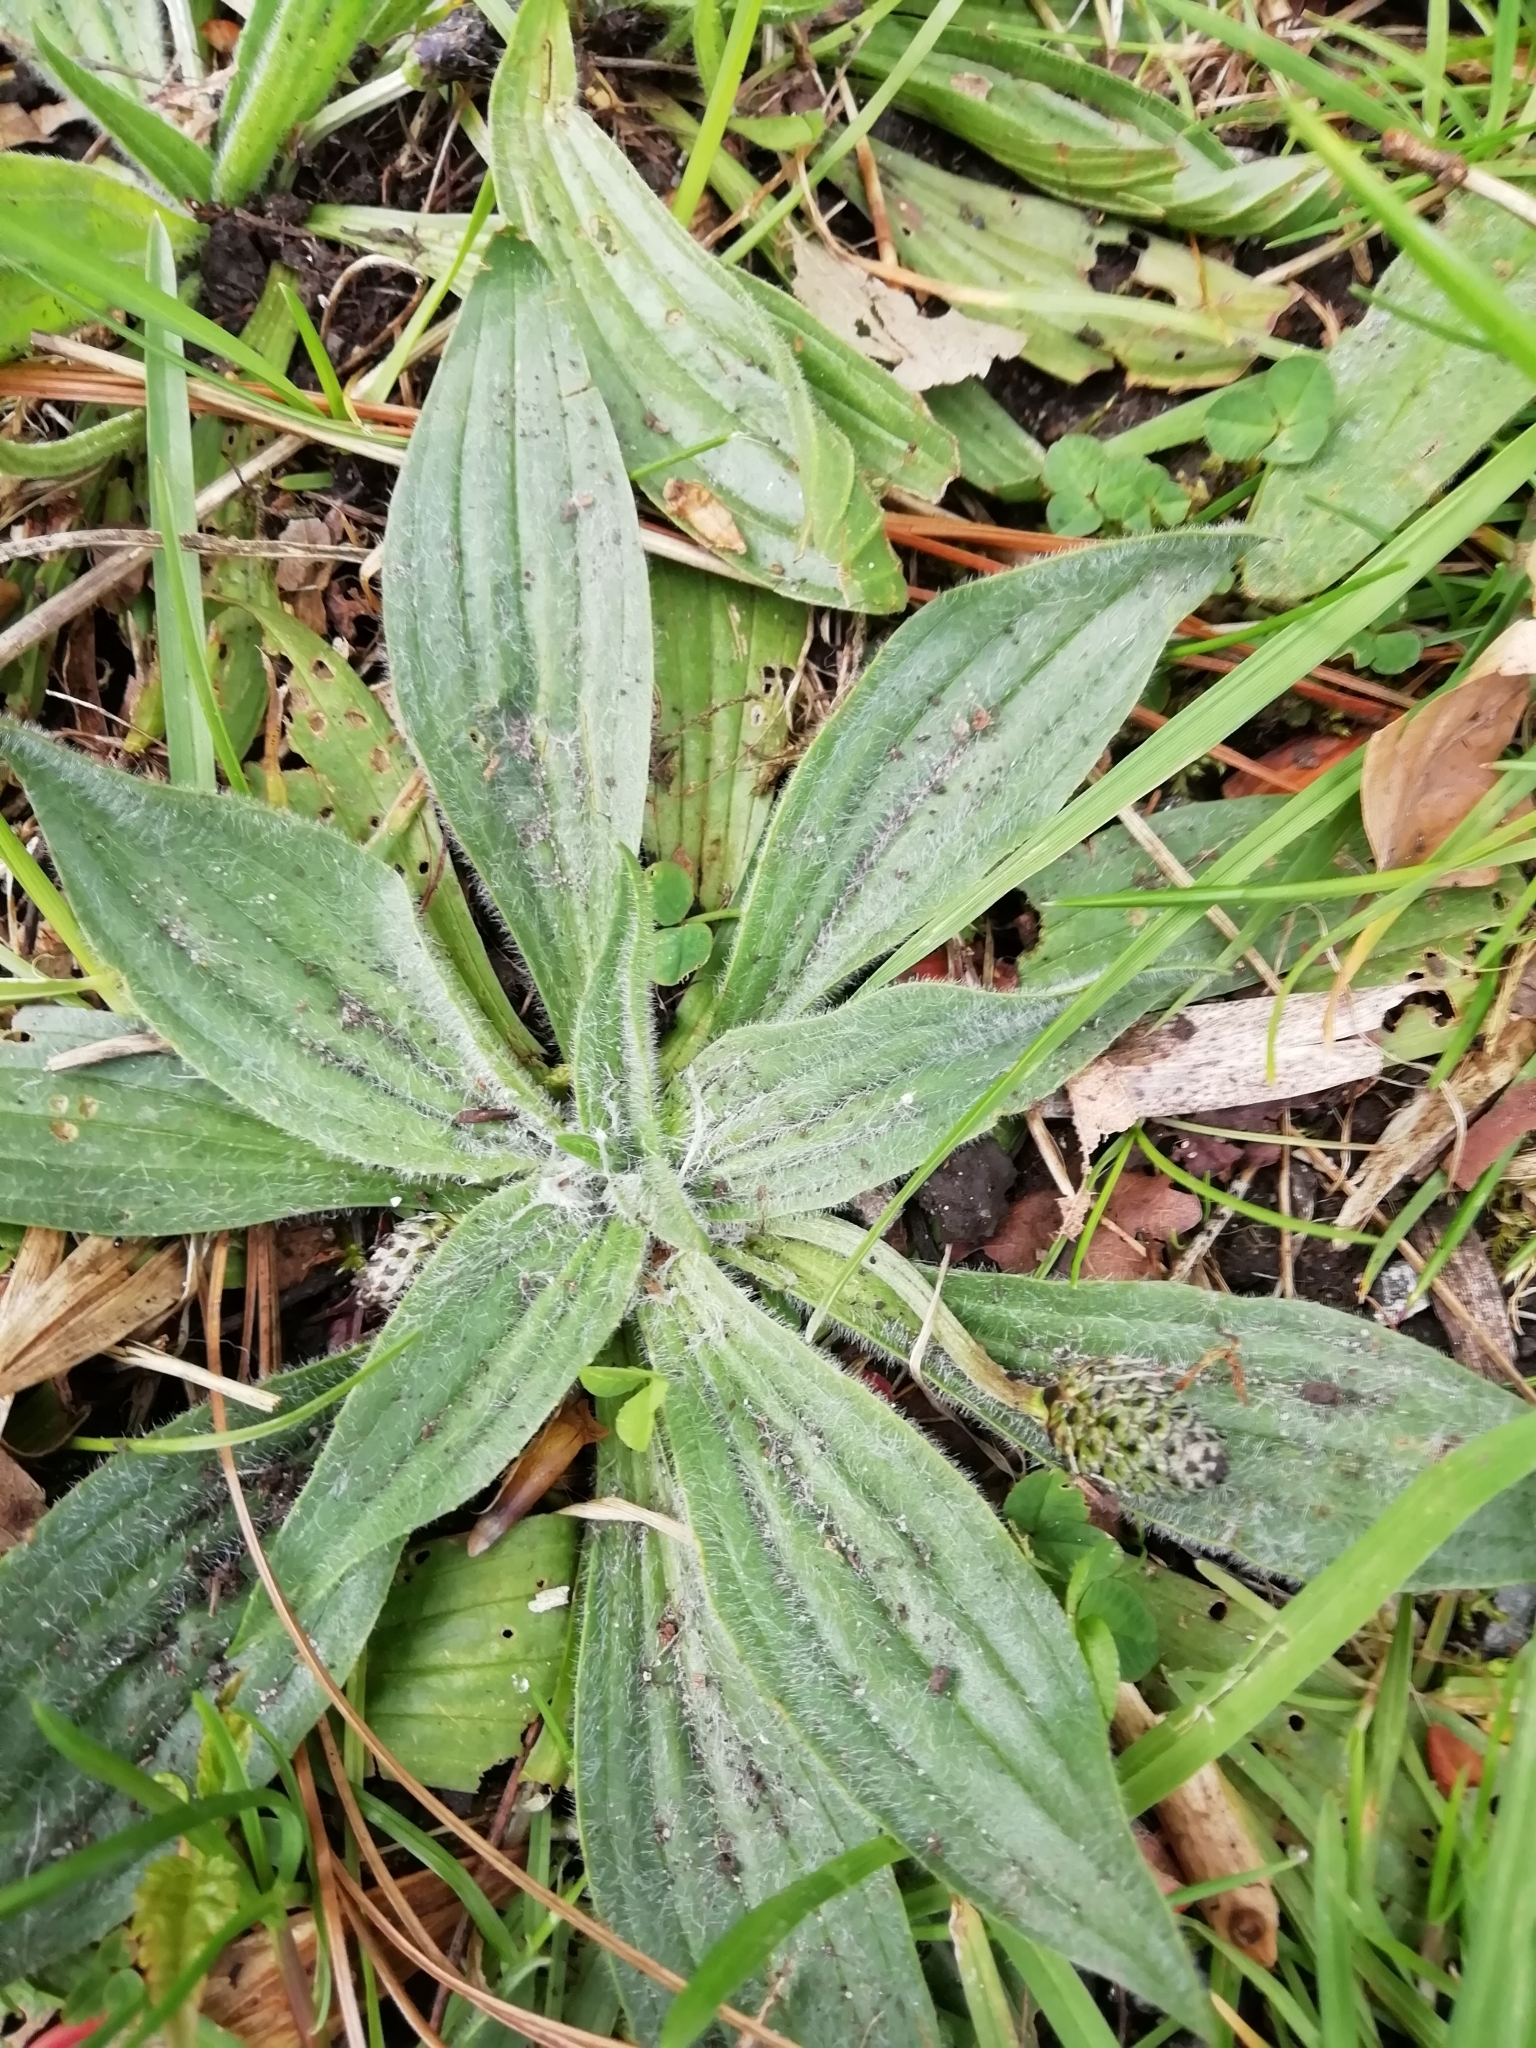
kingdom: Plantae
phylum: Tracheophyta
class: Magnoliopsida
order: Lamiales
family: Plantaginaceae
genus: Plantago
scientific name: Plantago lanceolata
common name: Ribwort plantain
